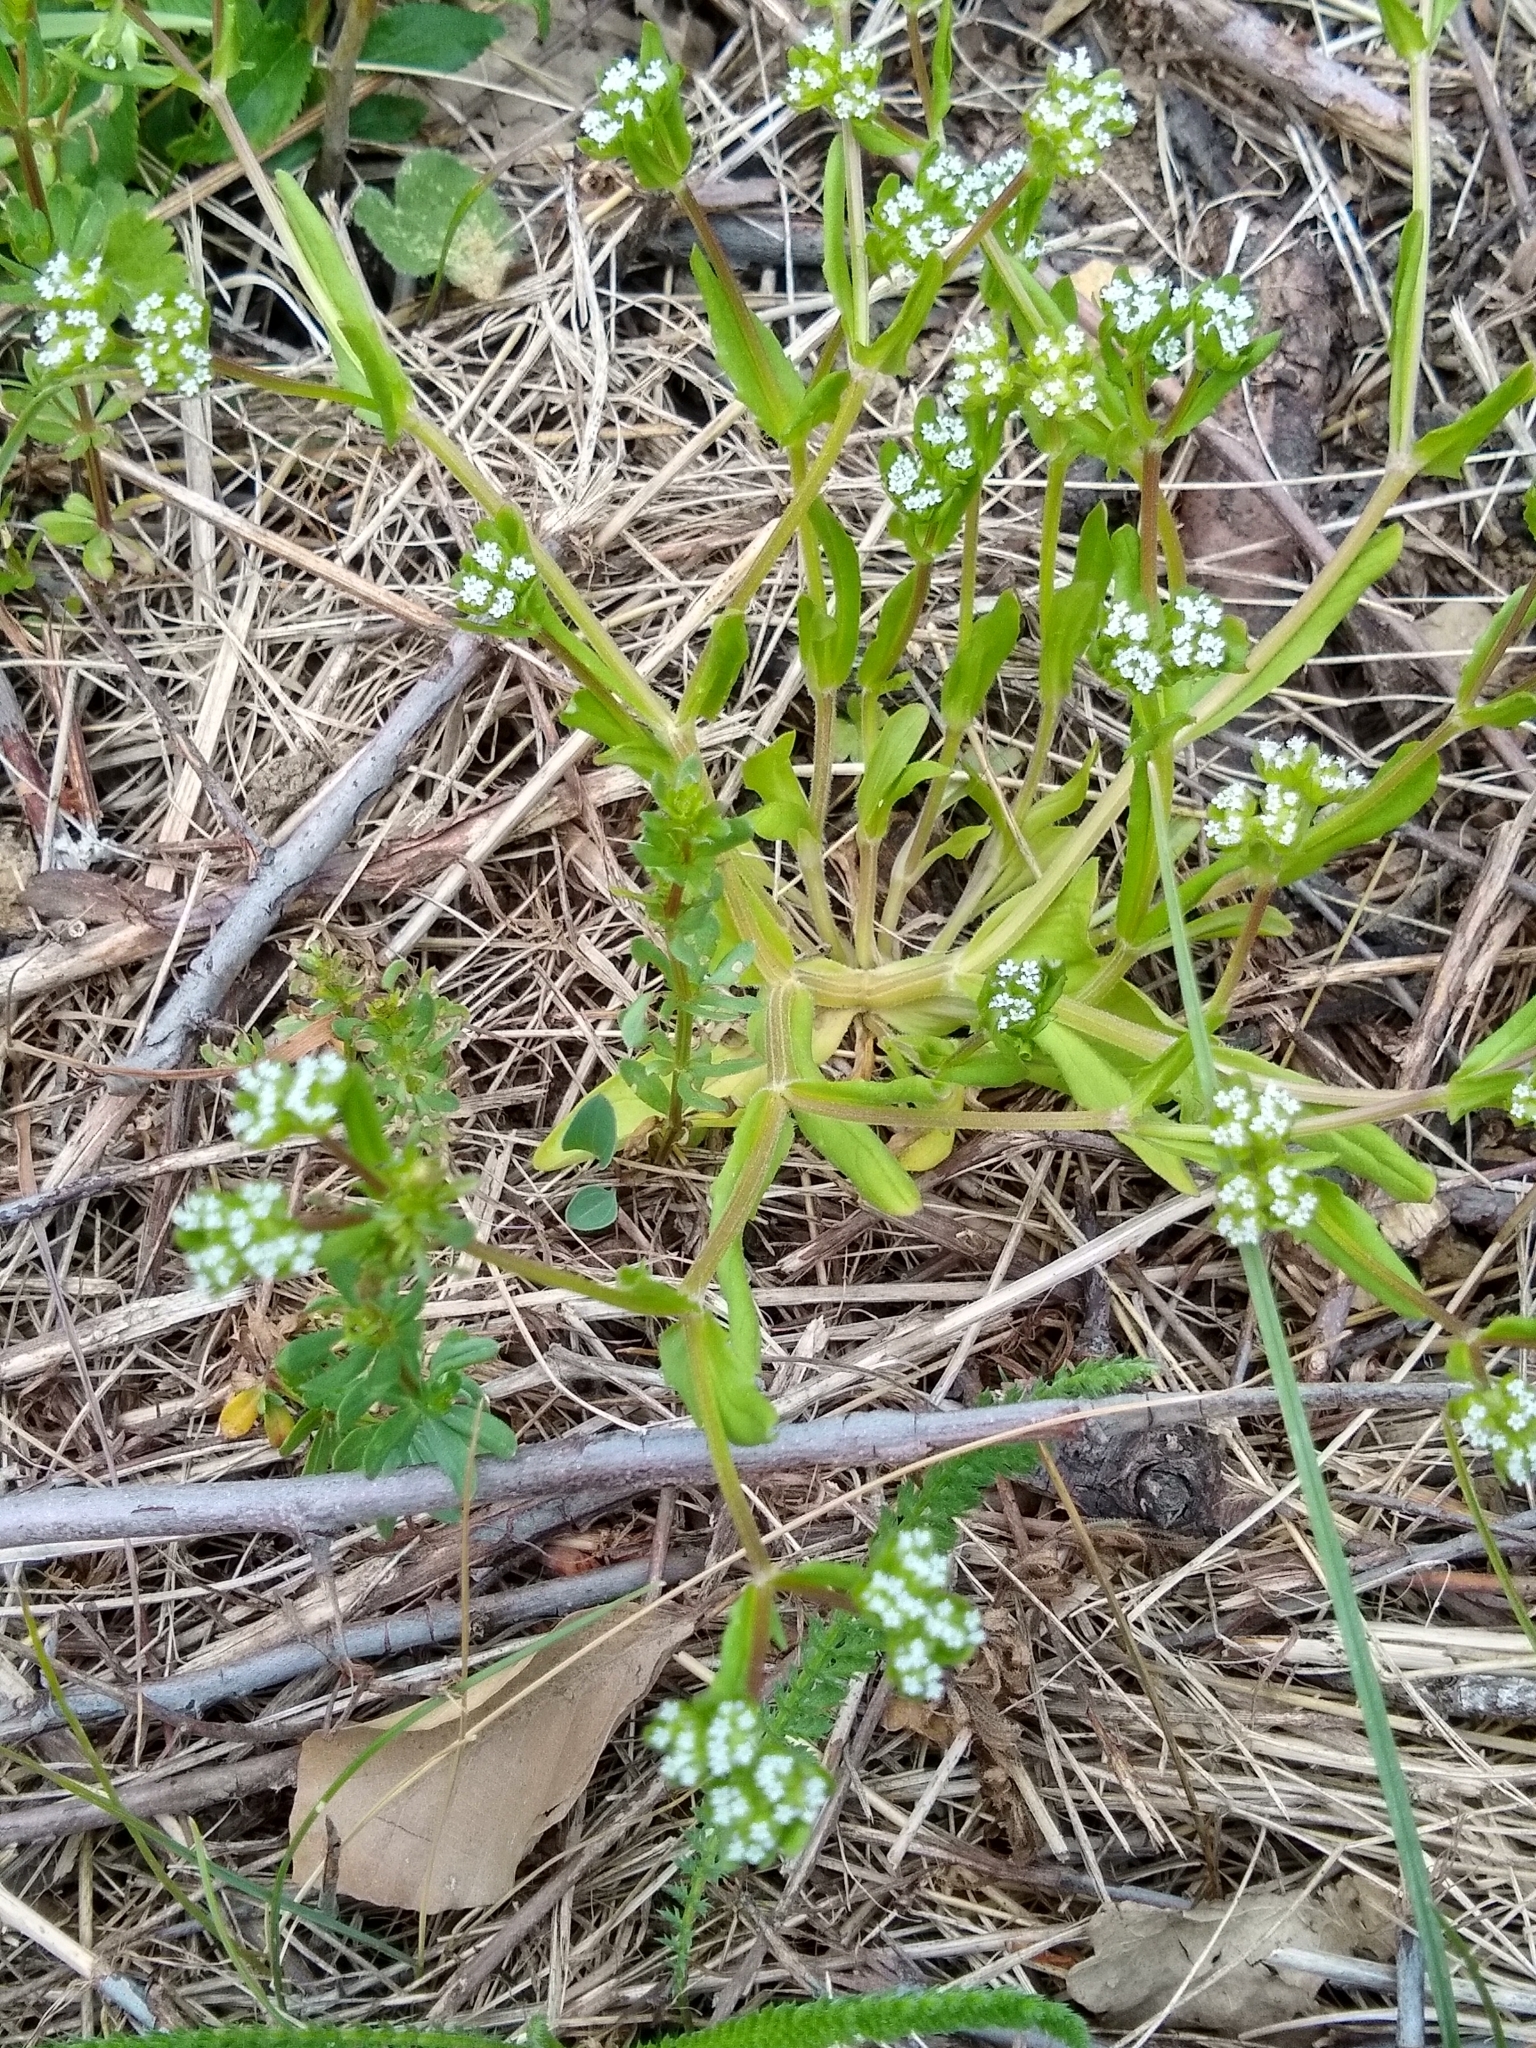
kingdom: Plantae
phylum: Tracheophyta
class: Magnoliopsida
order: Dipsacales
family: Caprifoliaceae
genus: Valerianella
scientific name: Valerianella
